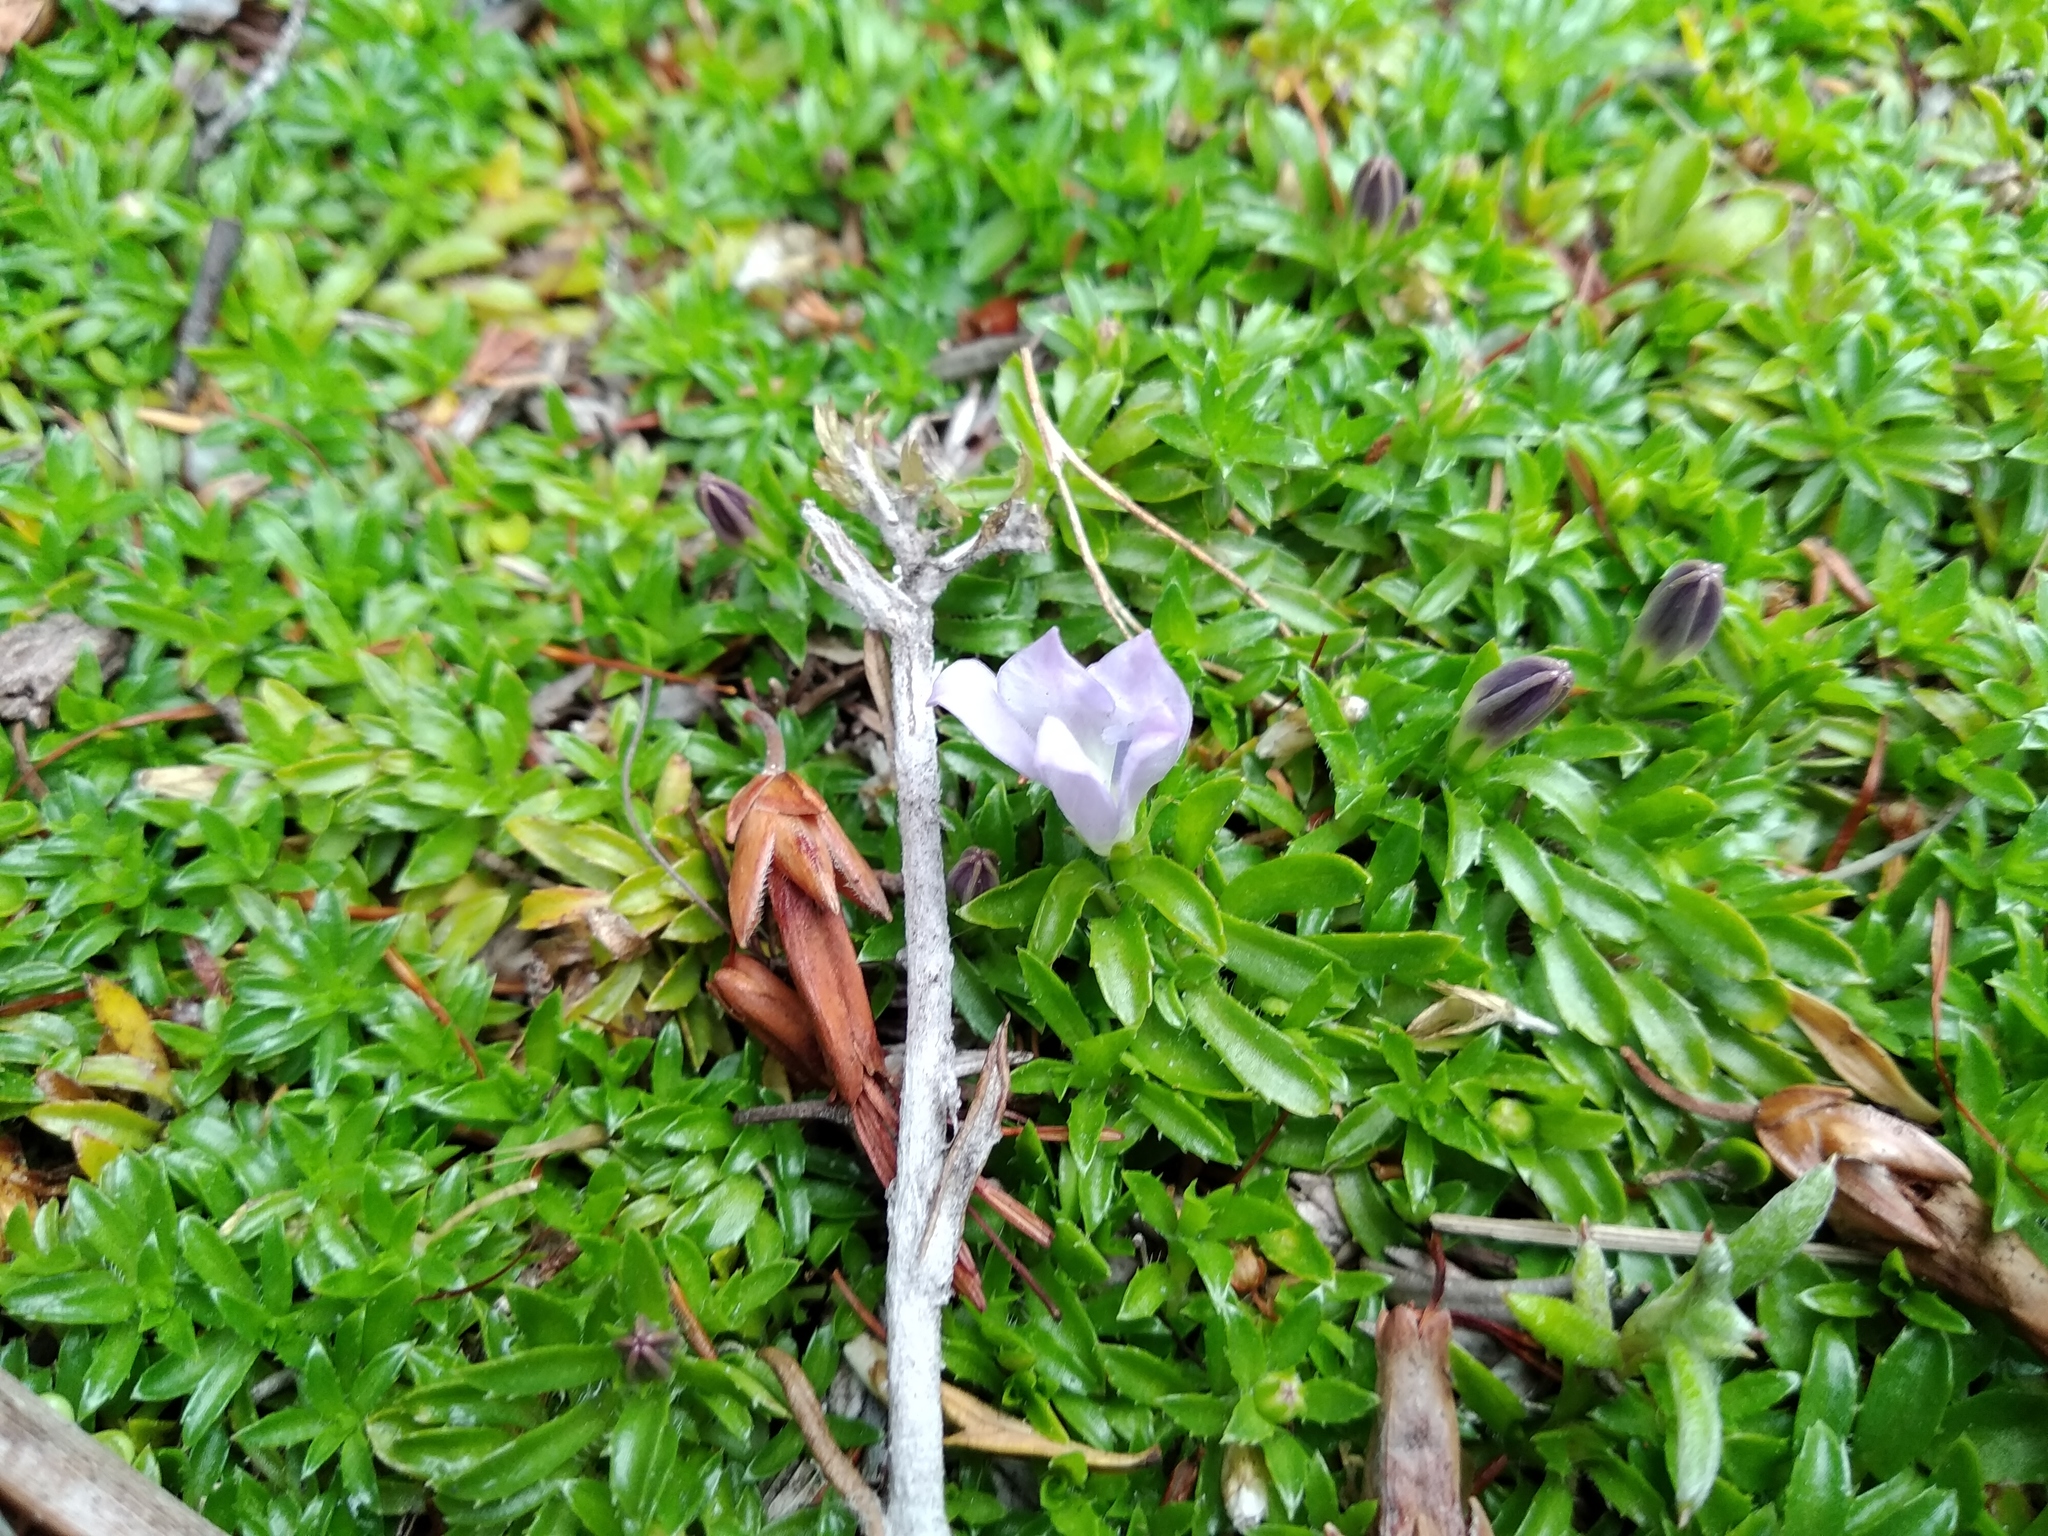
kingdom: Plantae
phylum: Tracheophyta
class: Magnoliopsida
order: Asterales
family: Campanulaceae
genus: Roella
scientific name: Roella muscosa
